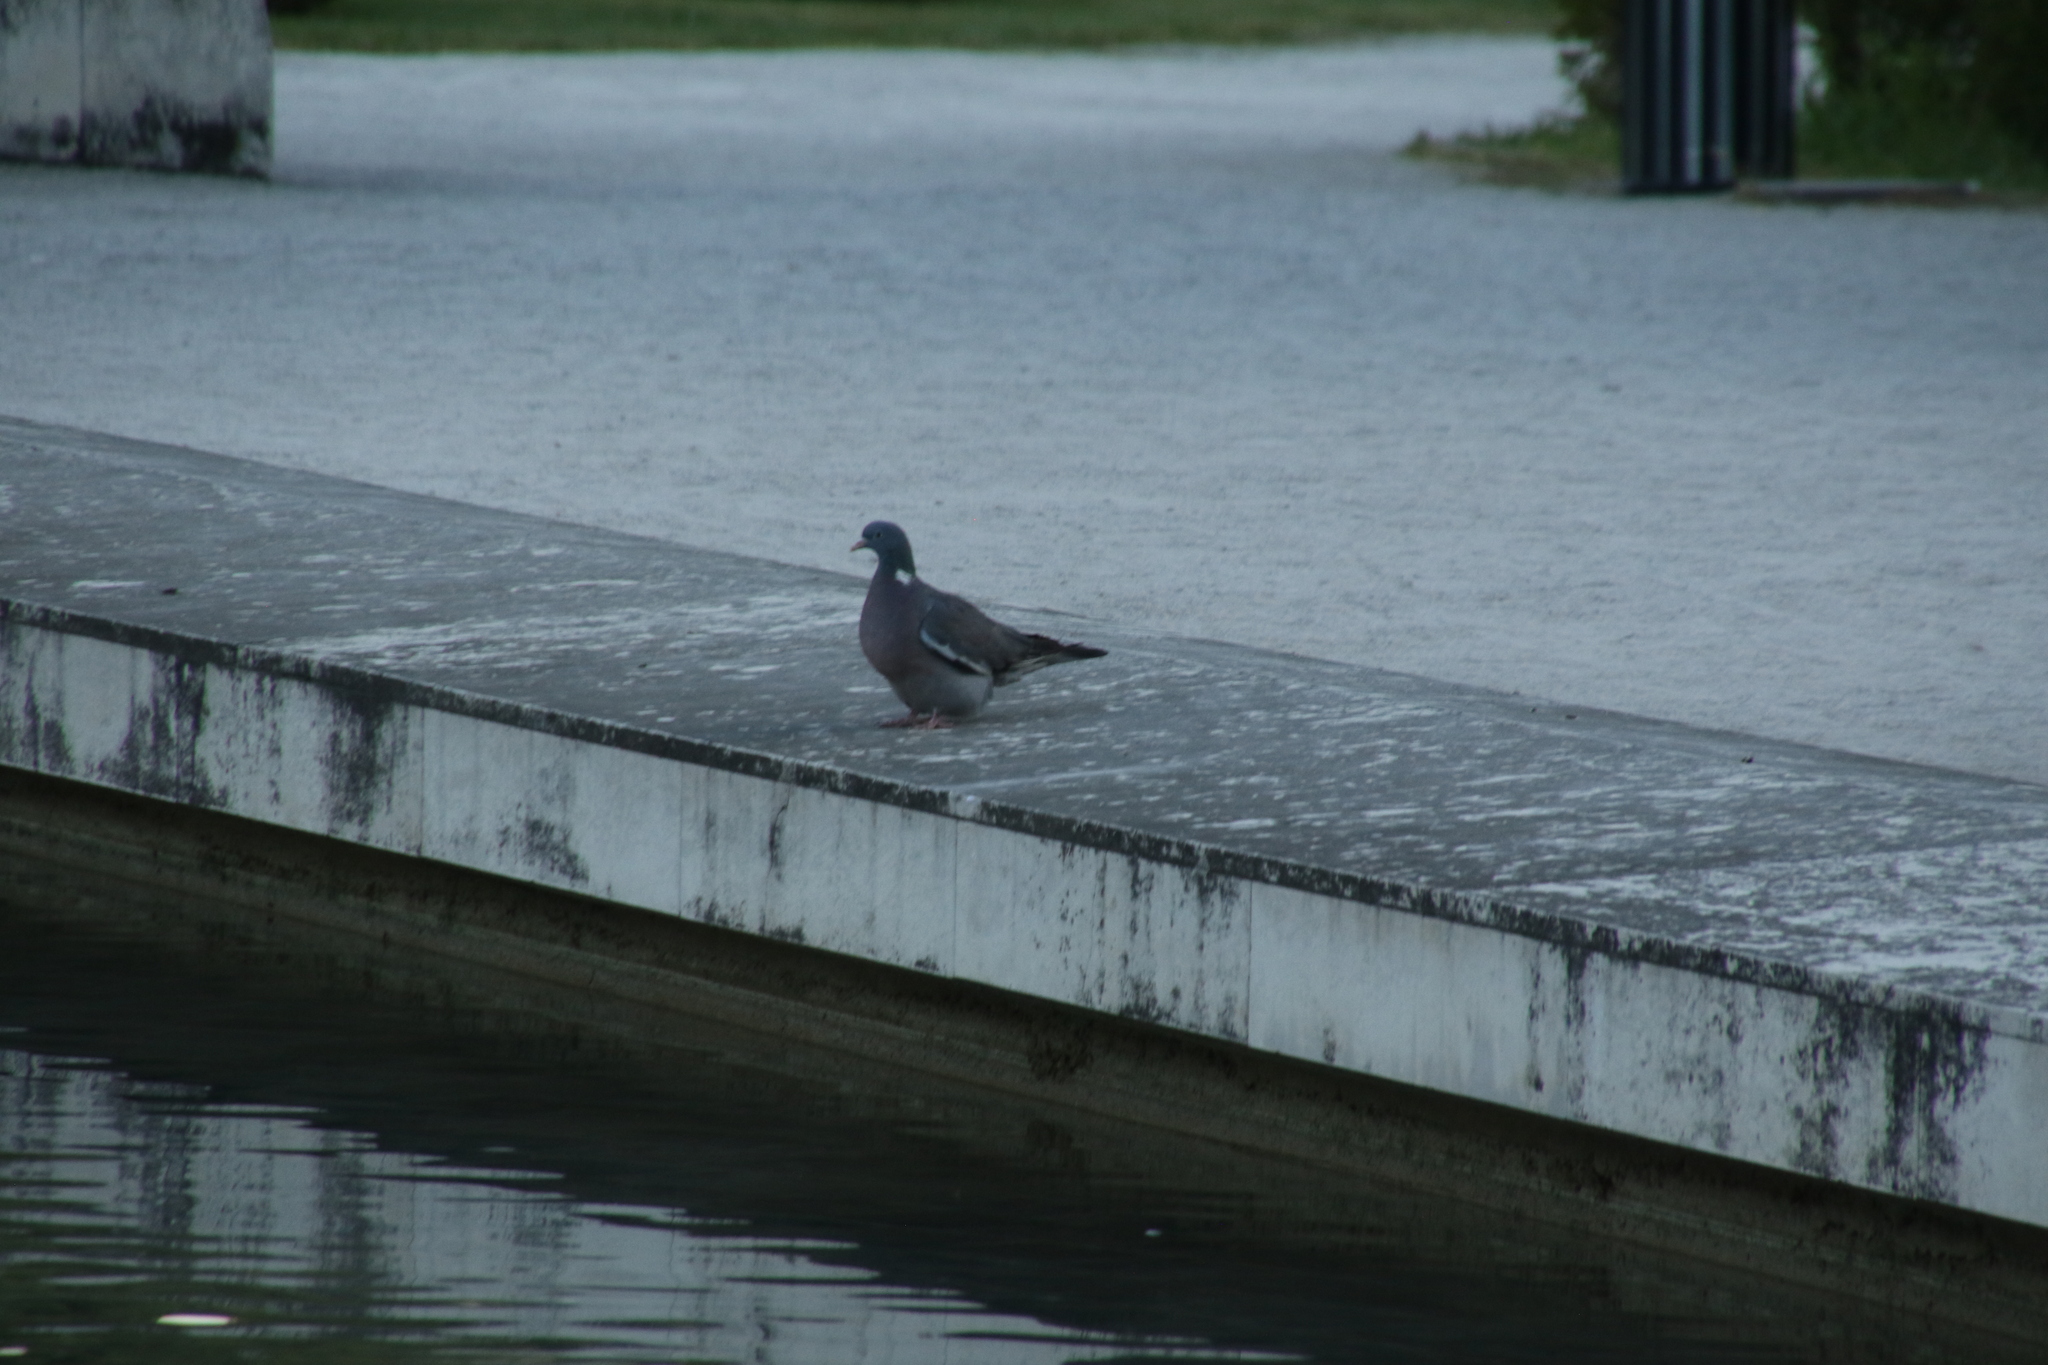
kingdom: Animalia
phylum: Chordata
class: Aves
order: Columbiformes
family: Columbidae
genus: Columba
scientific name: Columba palumbus
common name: Common wood pigeon
